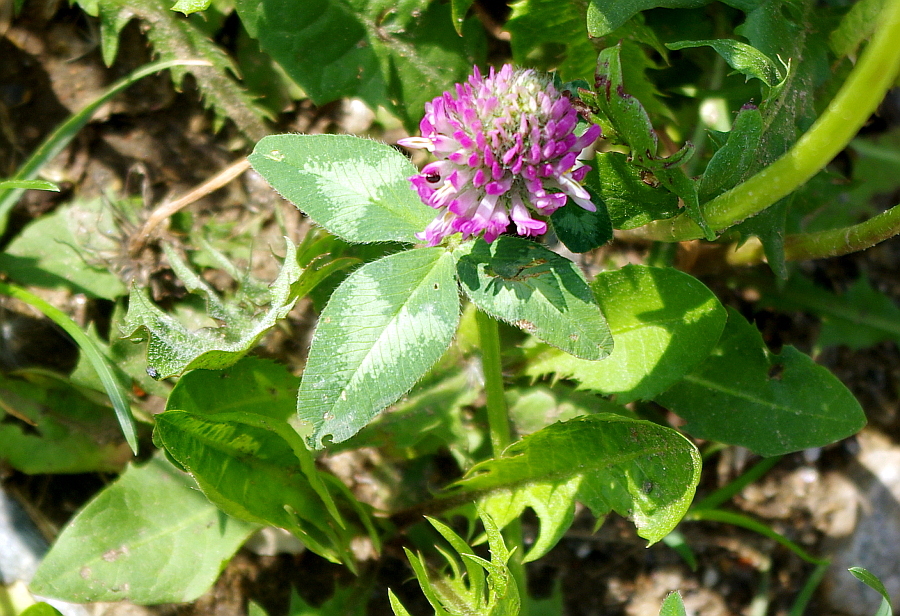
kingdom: Plantae
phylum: Tracheophyta
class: Magnoliopsida
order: Fabales
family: Fabaceae
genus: Trifolium
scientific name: Trifolium pratense
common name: Red clover
